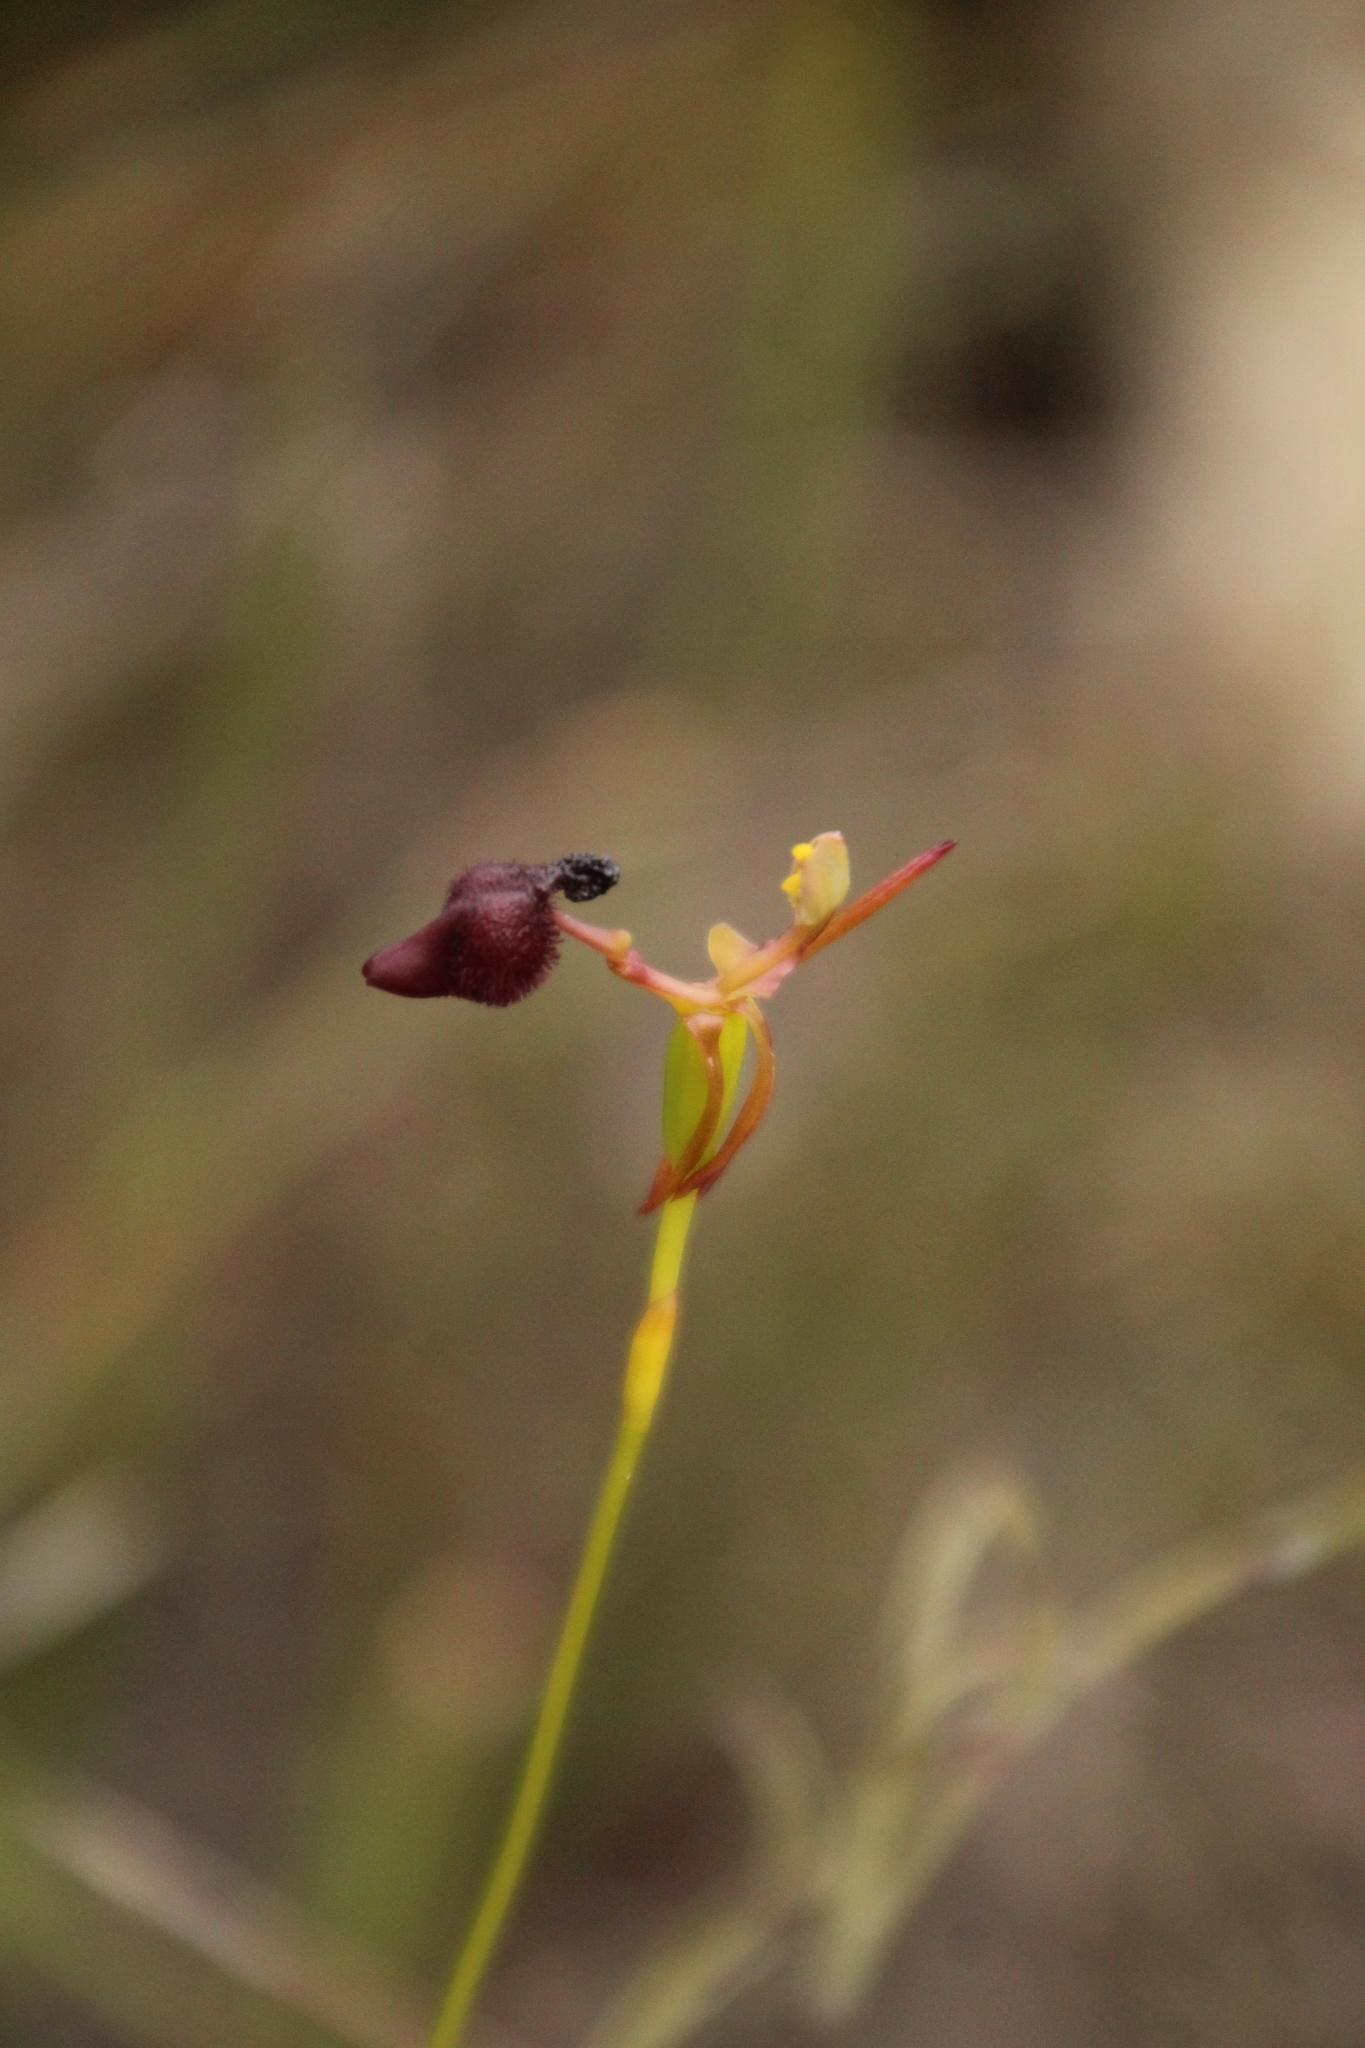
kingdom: Plantae
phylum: Tracheophyta
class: Liliopsida
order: Asparagales
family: Orchidaceae
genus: Drakaea
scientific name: Drakaea glyptodon
